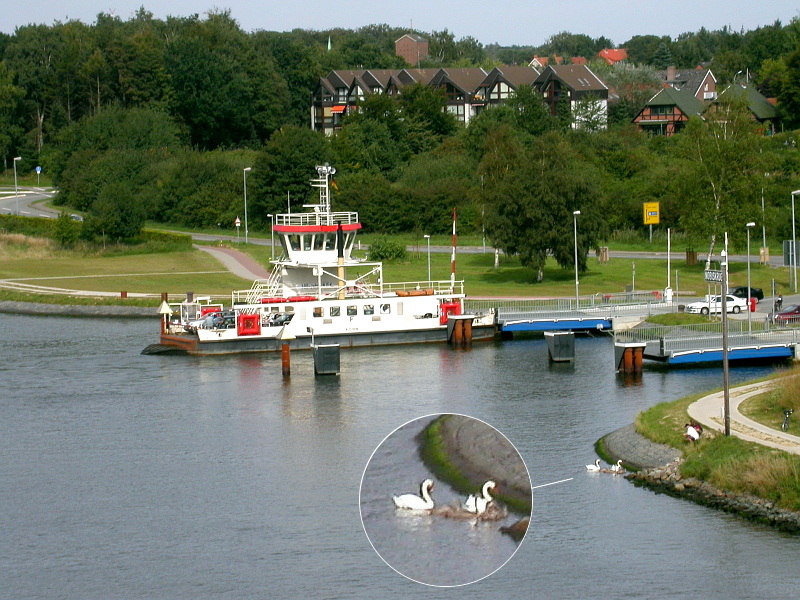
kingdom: Animalia
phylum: Chordata
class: Aves
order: Anseriformes
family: Anatidae
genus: Cygnus
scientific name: Cygnus olor
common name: Mute swan
